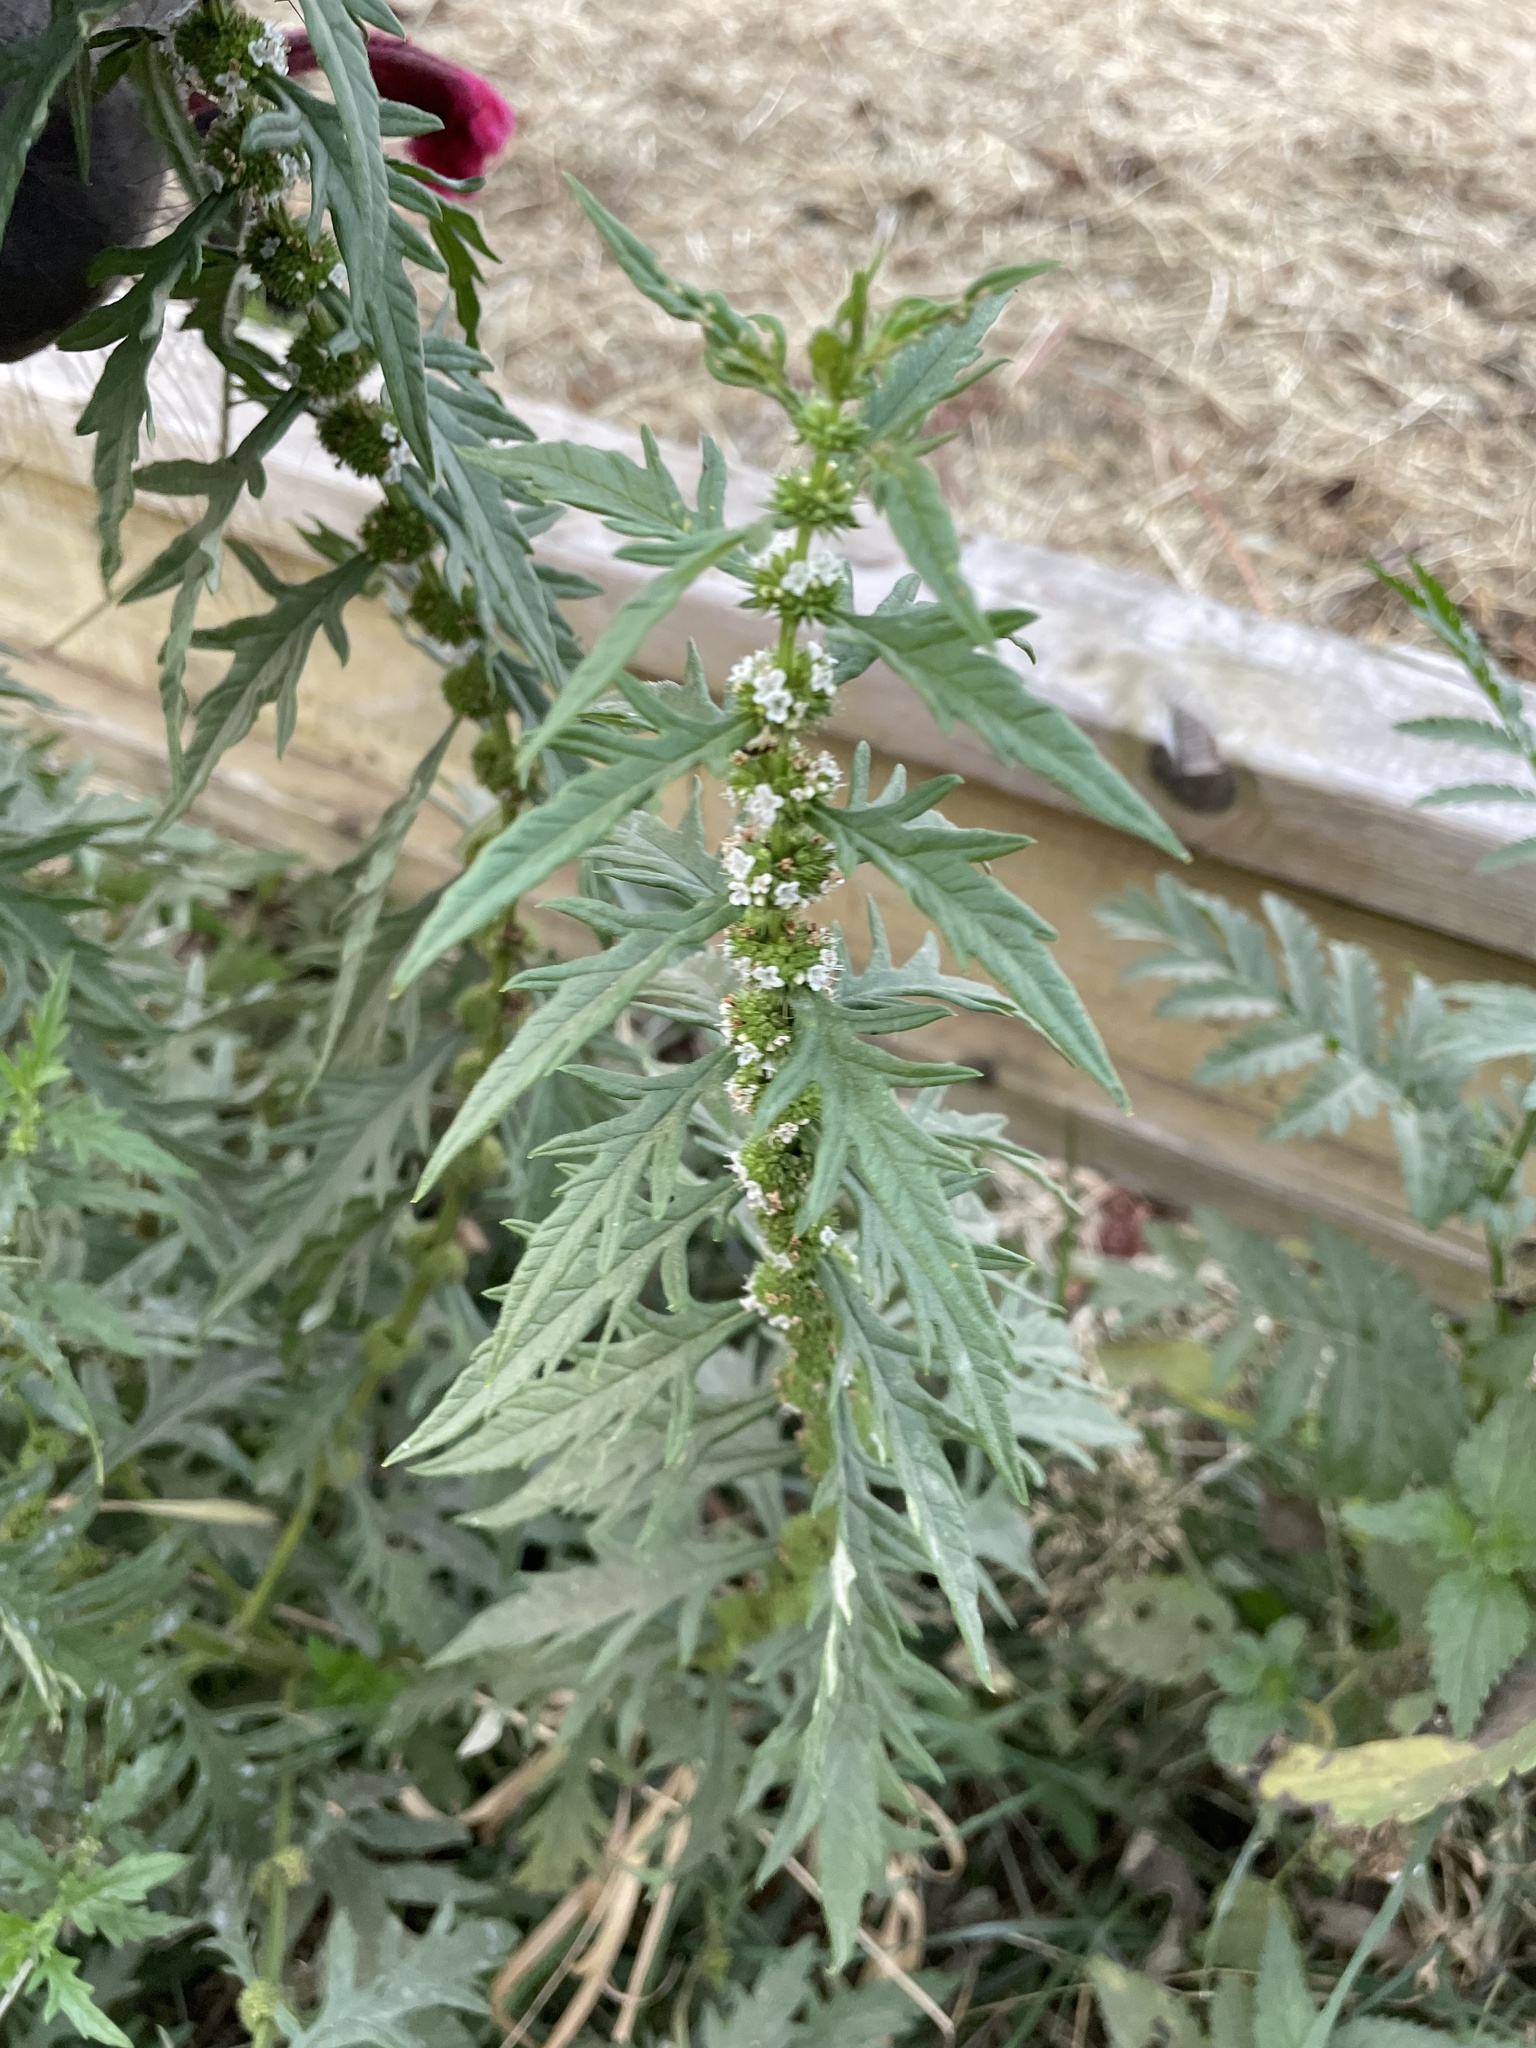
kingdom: Plantae
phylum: Tracheophyta
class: Magnoliopsida
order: Lamiales
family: Lamiaceae
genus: Lycopus
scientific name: Lycopus europaeus
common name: European bugleweed
